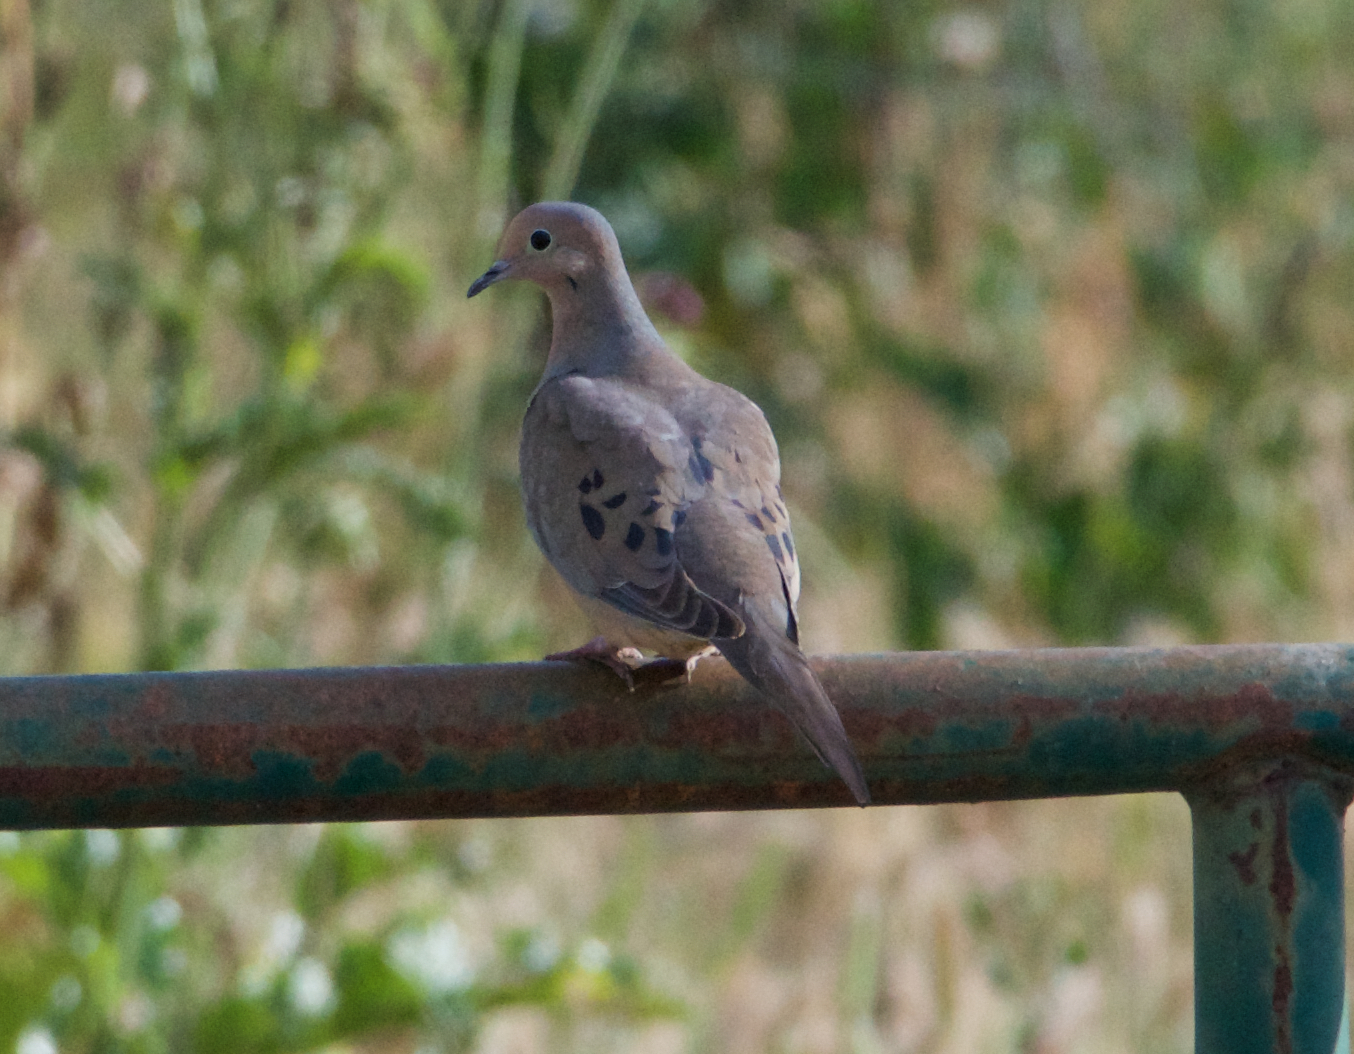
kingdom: Animalia
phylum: Chordata
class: Aves
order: Columbiformes
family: Columbidae
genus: Zenaida
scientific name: Zenaida macroura
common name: Mourning dove
